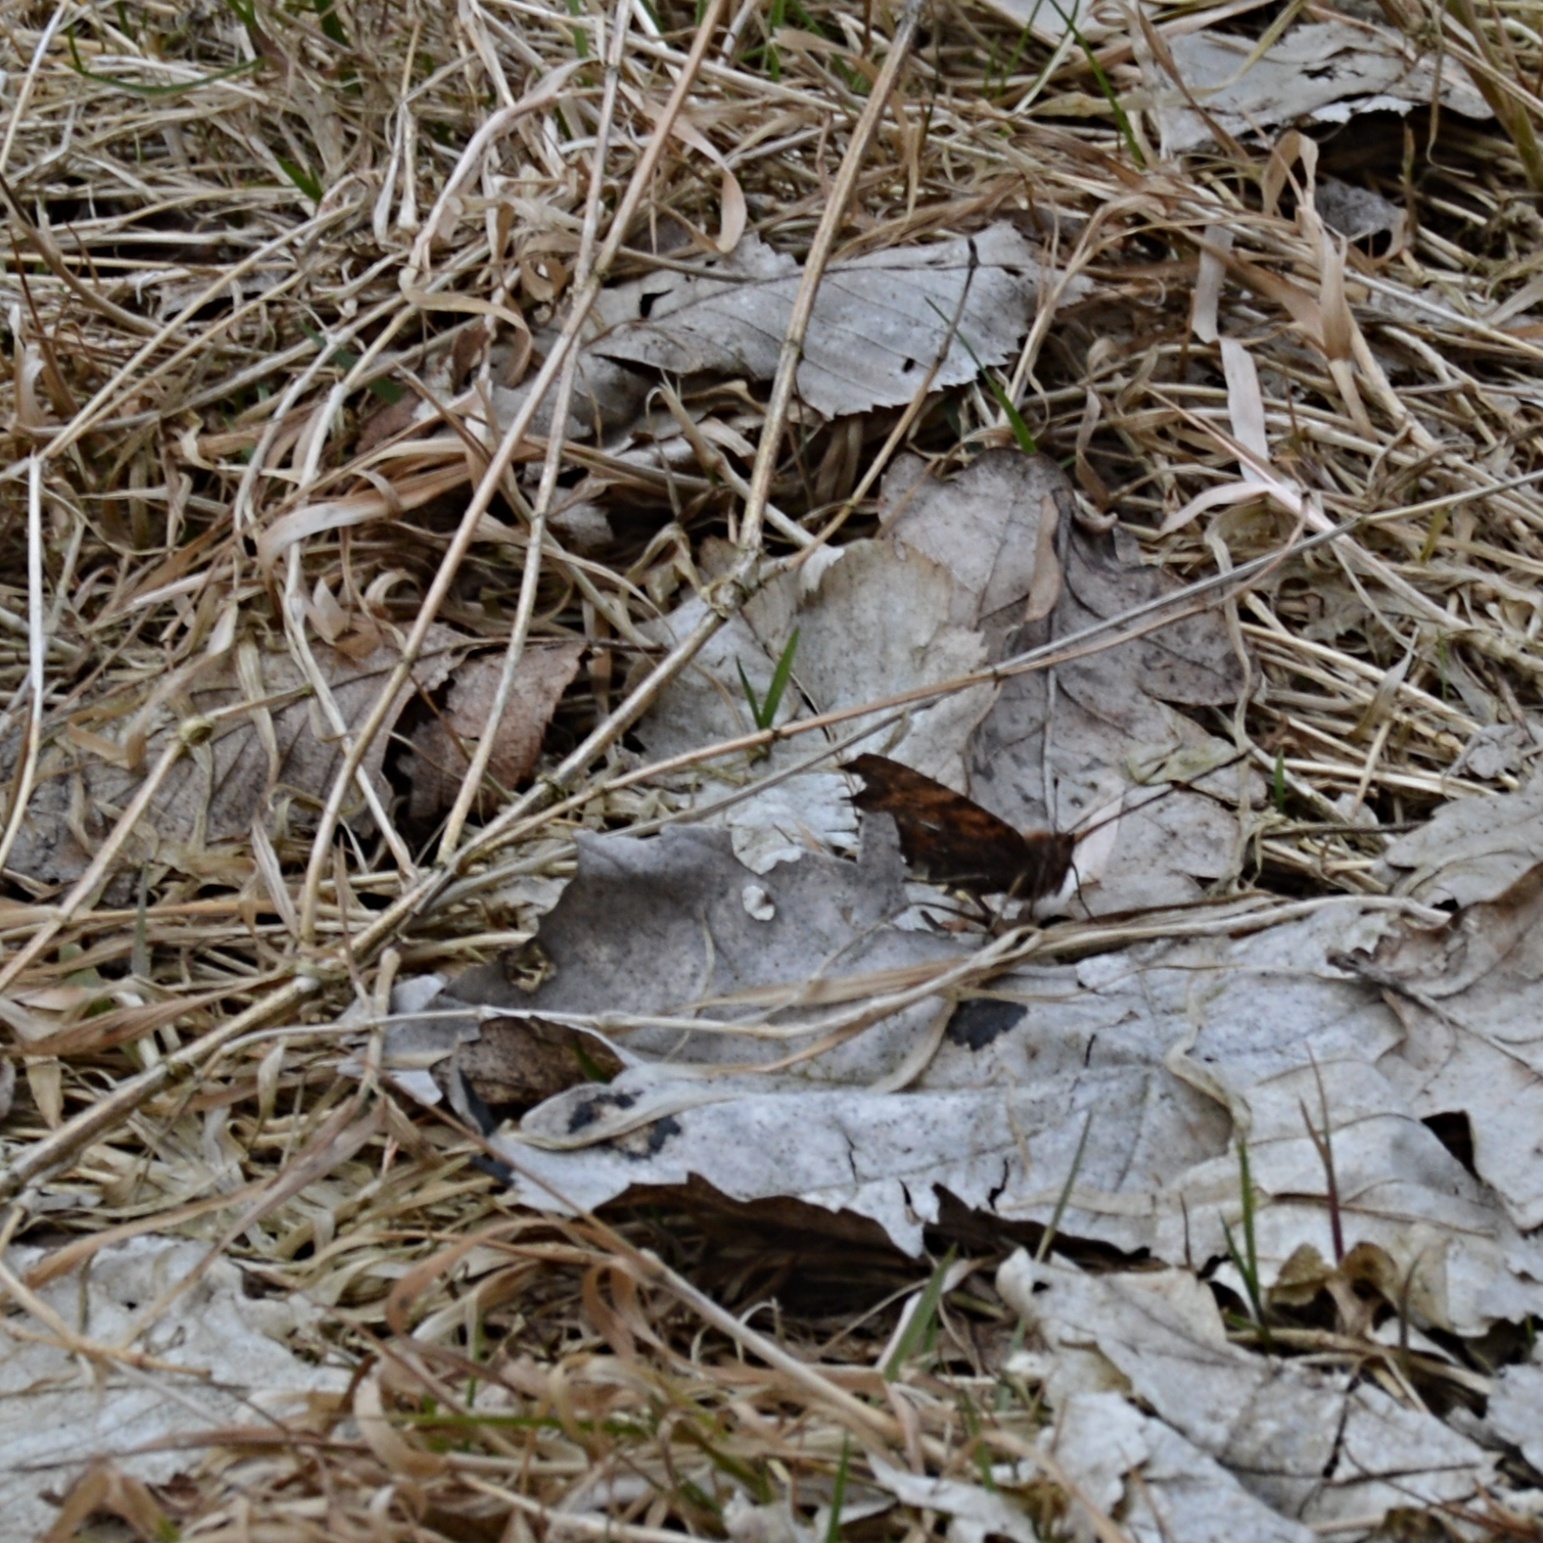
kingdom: Animalia
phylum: Arthropoda
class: Insecta
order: Lepidoptera
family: Nymphalidae
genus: Polygonia
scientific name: Polygonia c-album
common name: Comma
